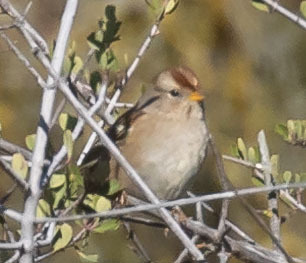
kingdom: Animalia
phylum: Chordata
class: Aves
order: Passeriformes
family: Passerellidae
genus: Zonotrichia
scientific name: Zonotrichia leucophrys
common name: White-crowned sparrow
